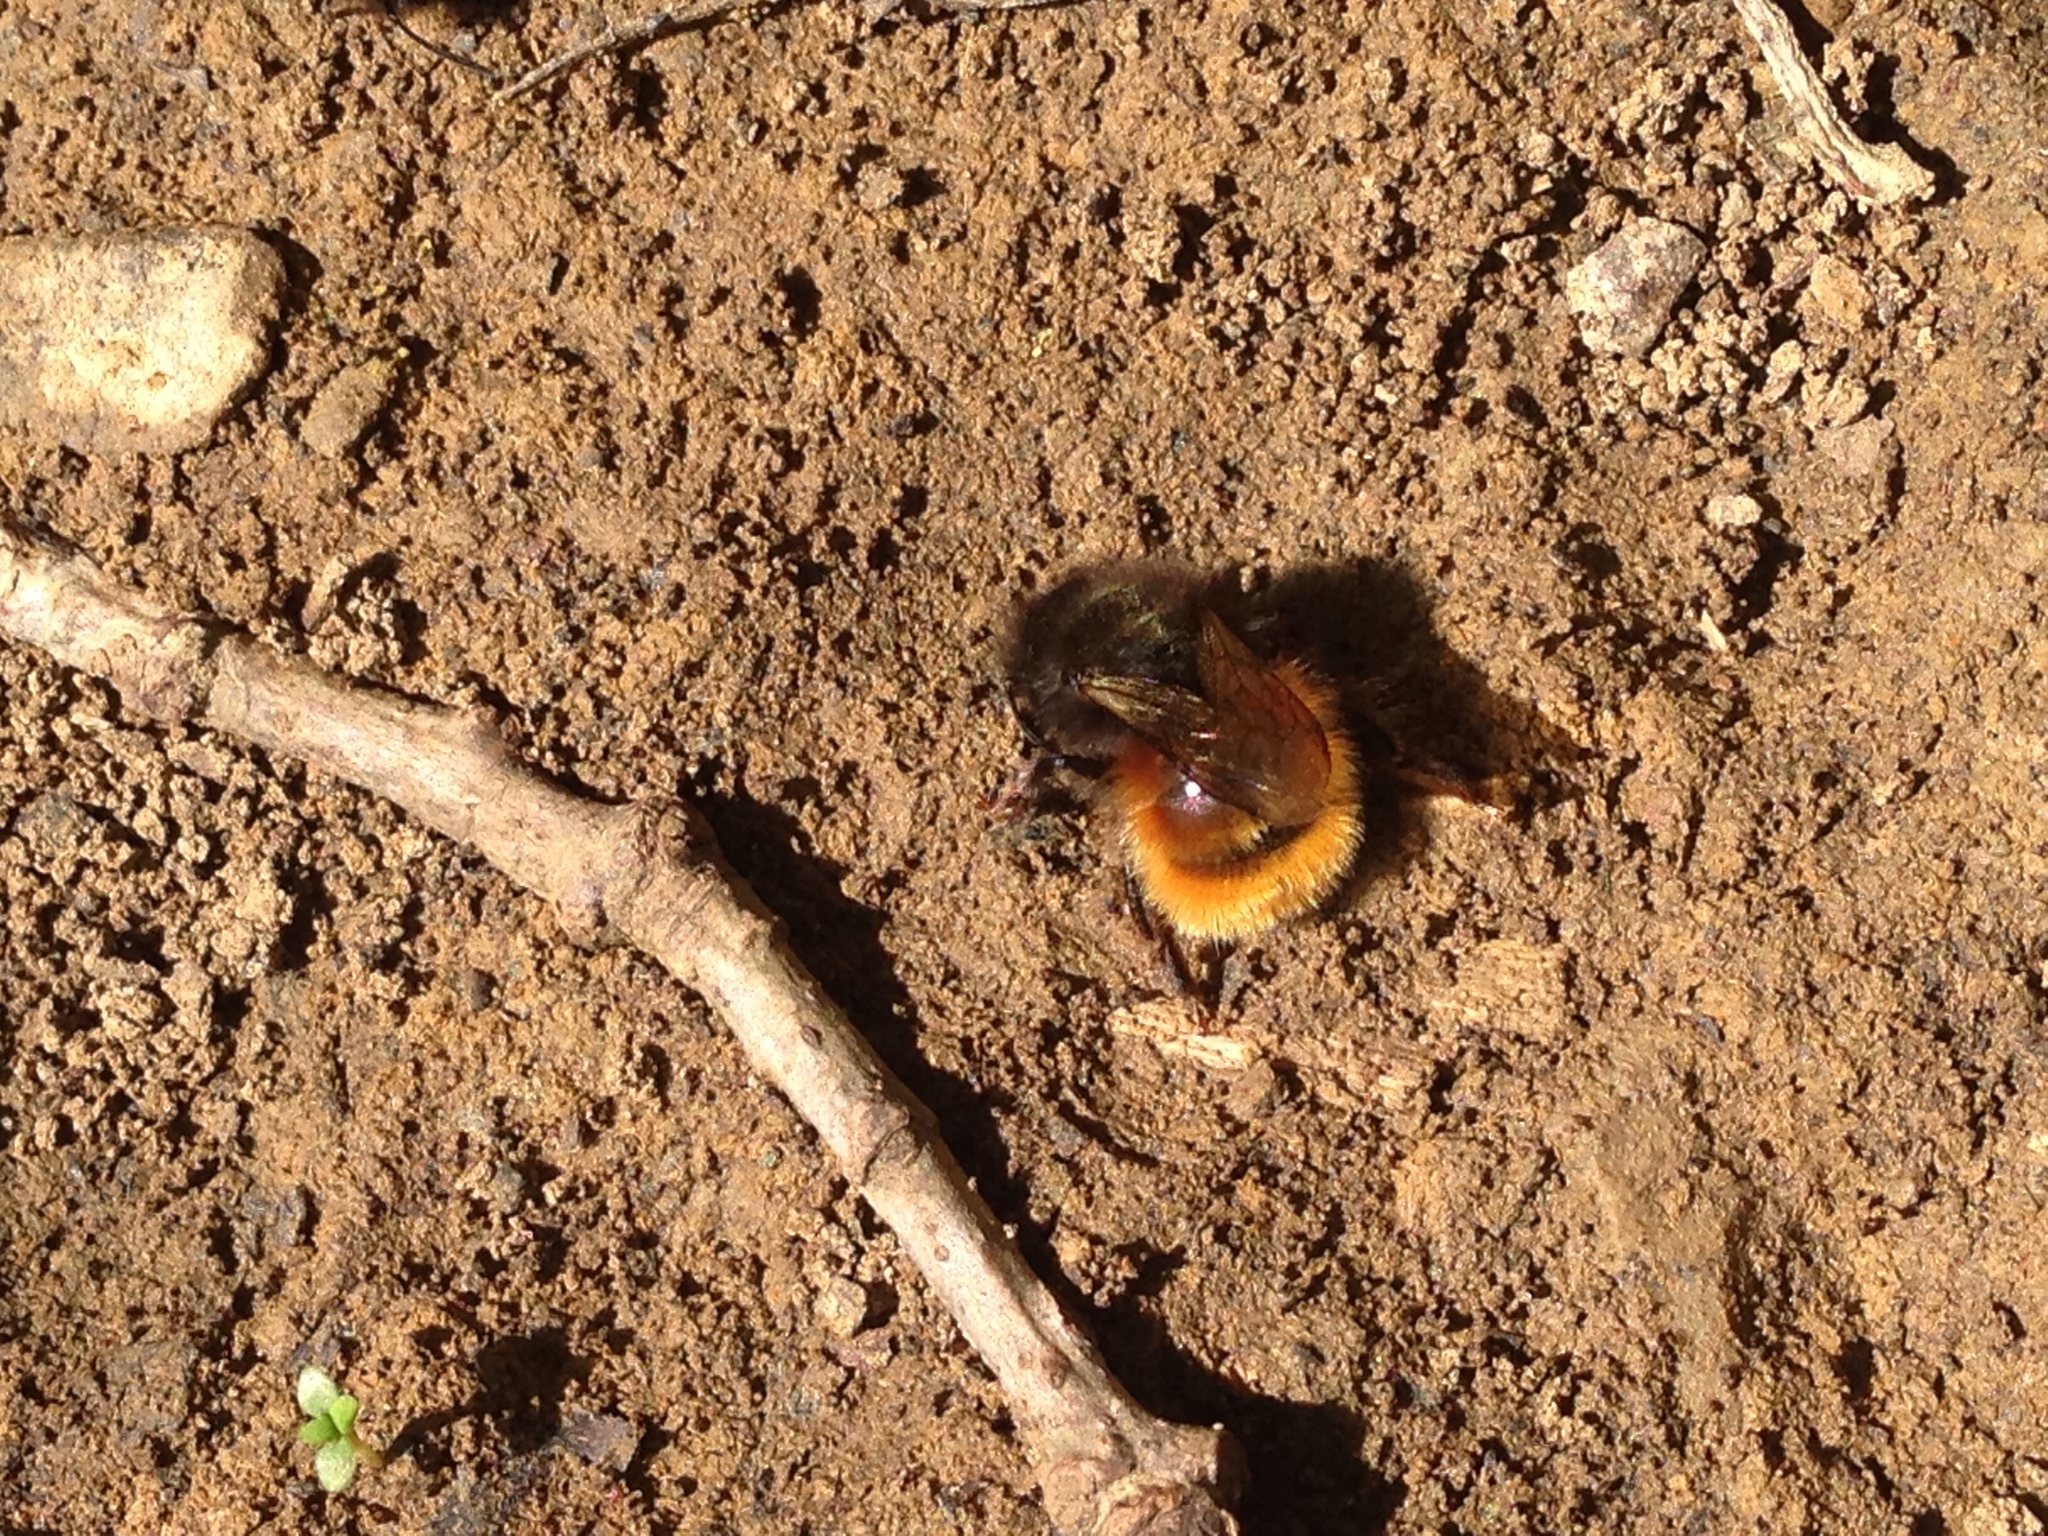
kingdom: Animalia
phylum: Arthropoda
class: Insecta
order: Hymenoptera
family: Megachilidae
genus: Osmia
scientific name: Osmia cornuta
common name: Mason bee
